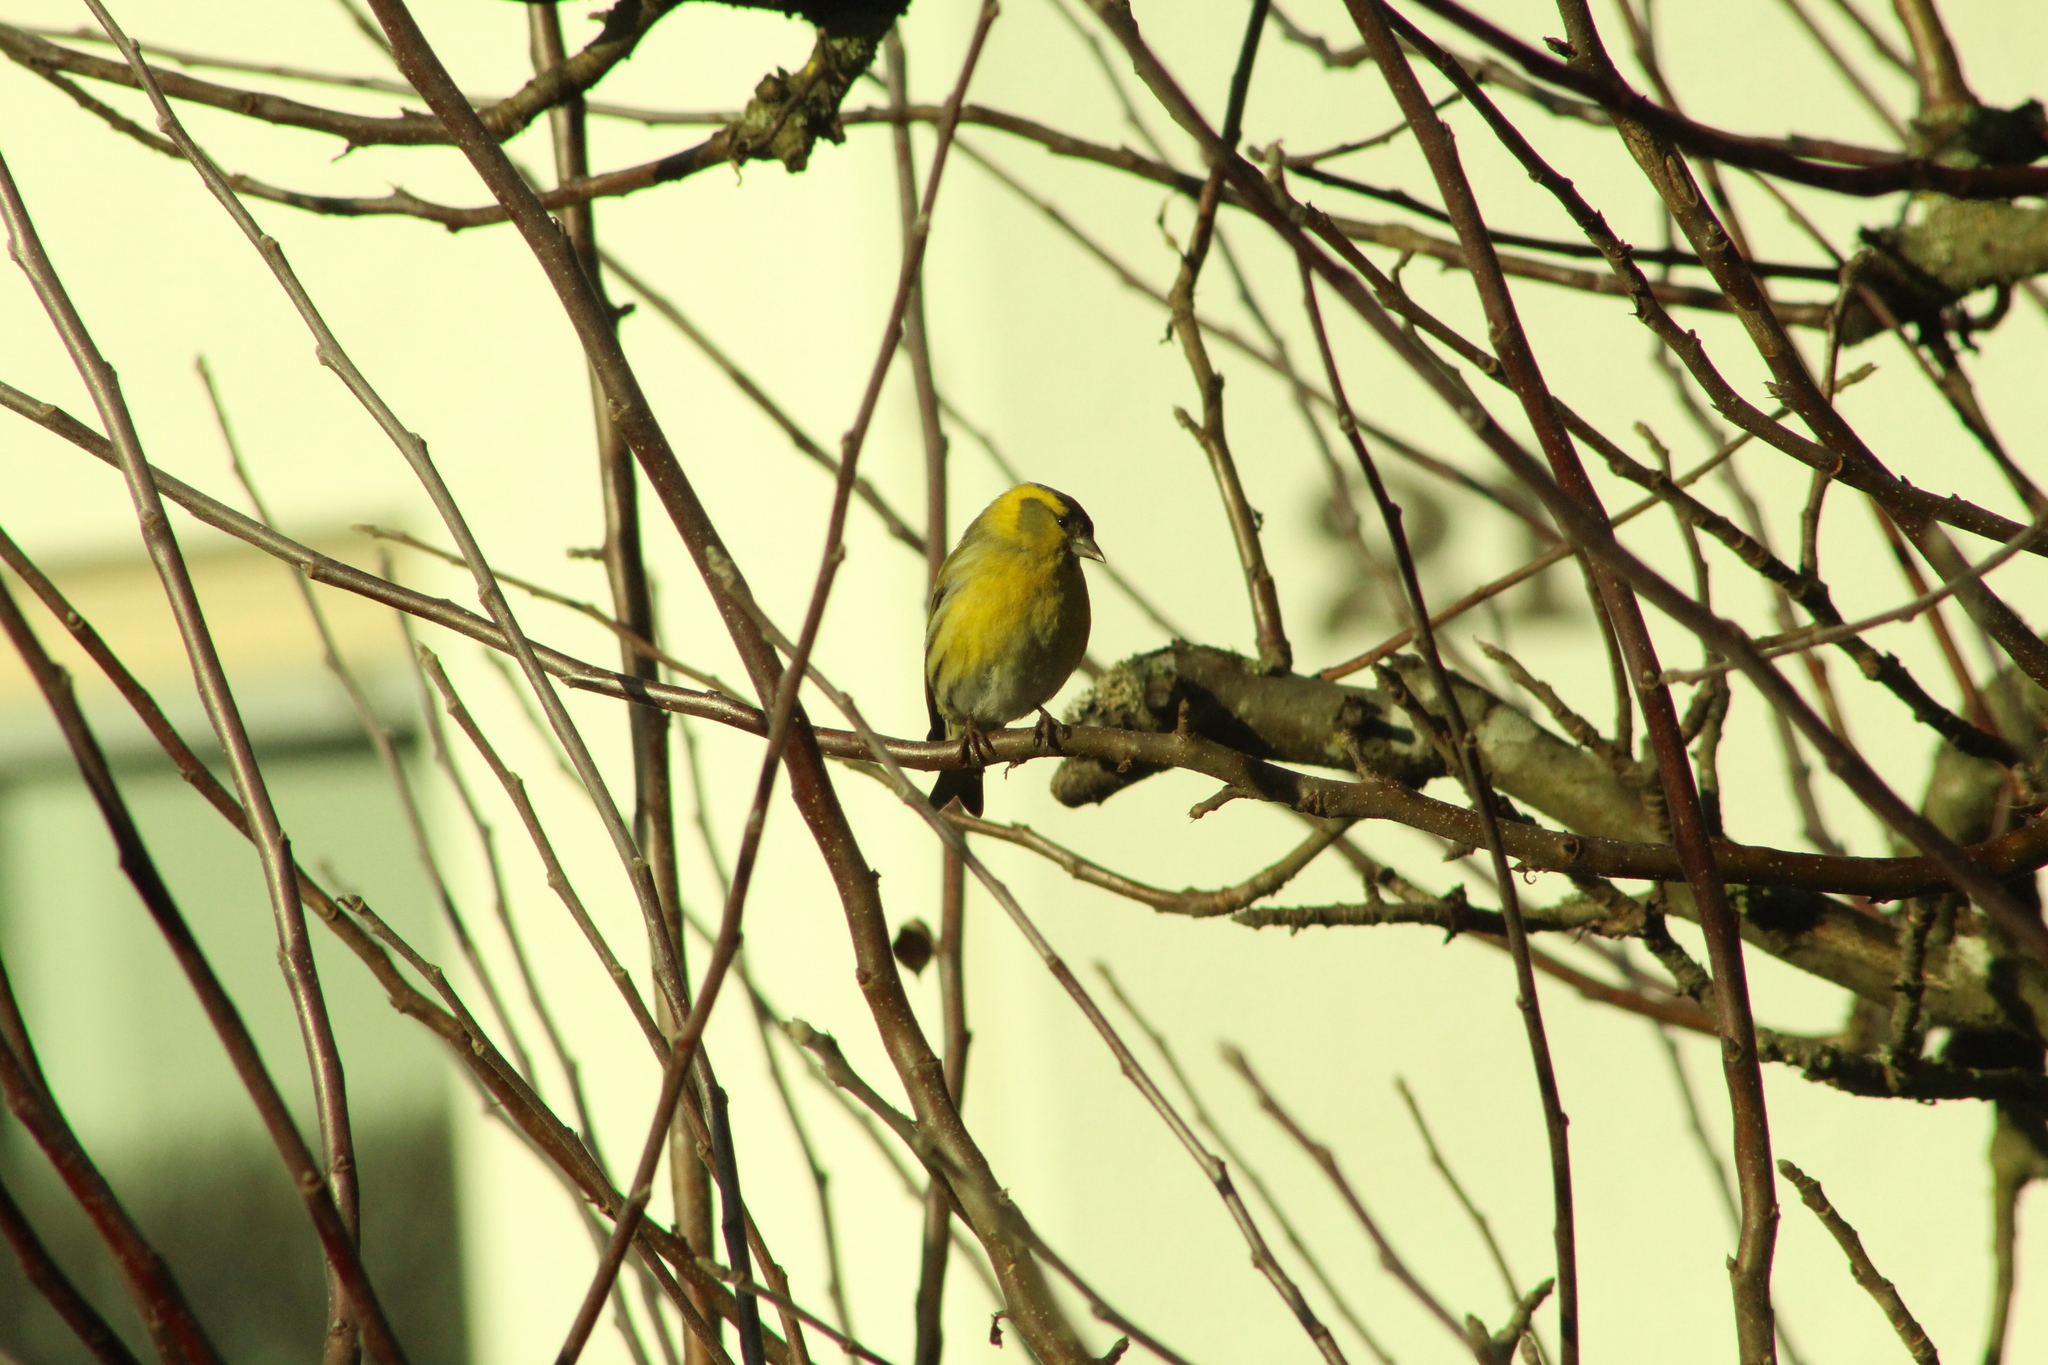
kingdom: Animalia
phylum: Chordata
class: Aves
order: Passeriformes
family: Fringillidae
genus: Spinus
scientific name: Spinus spinus
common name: Eurasian siskin
